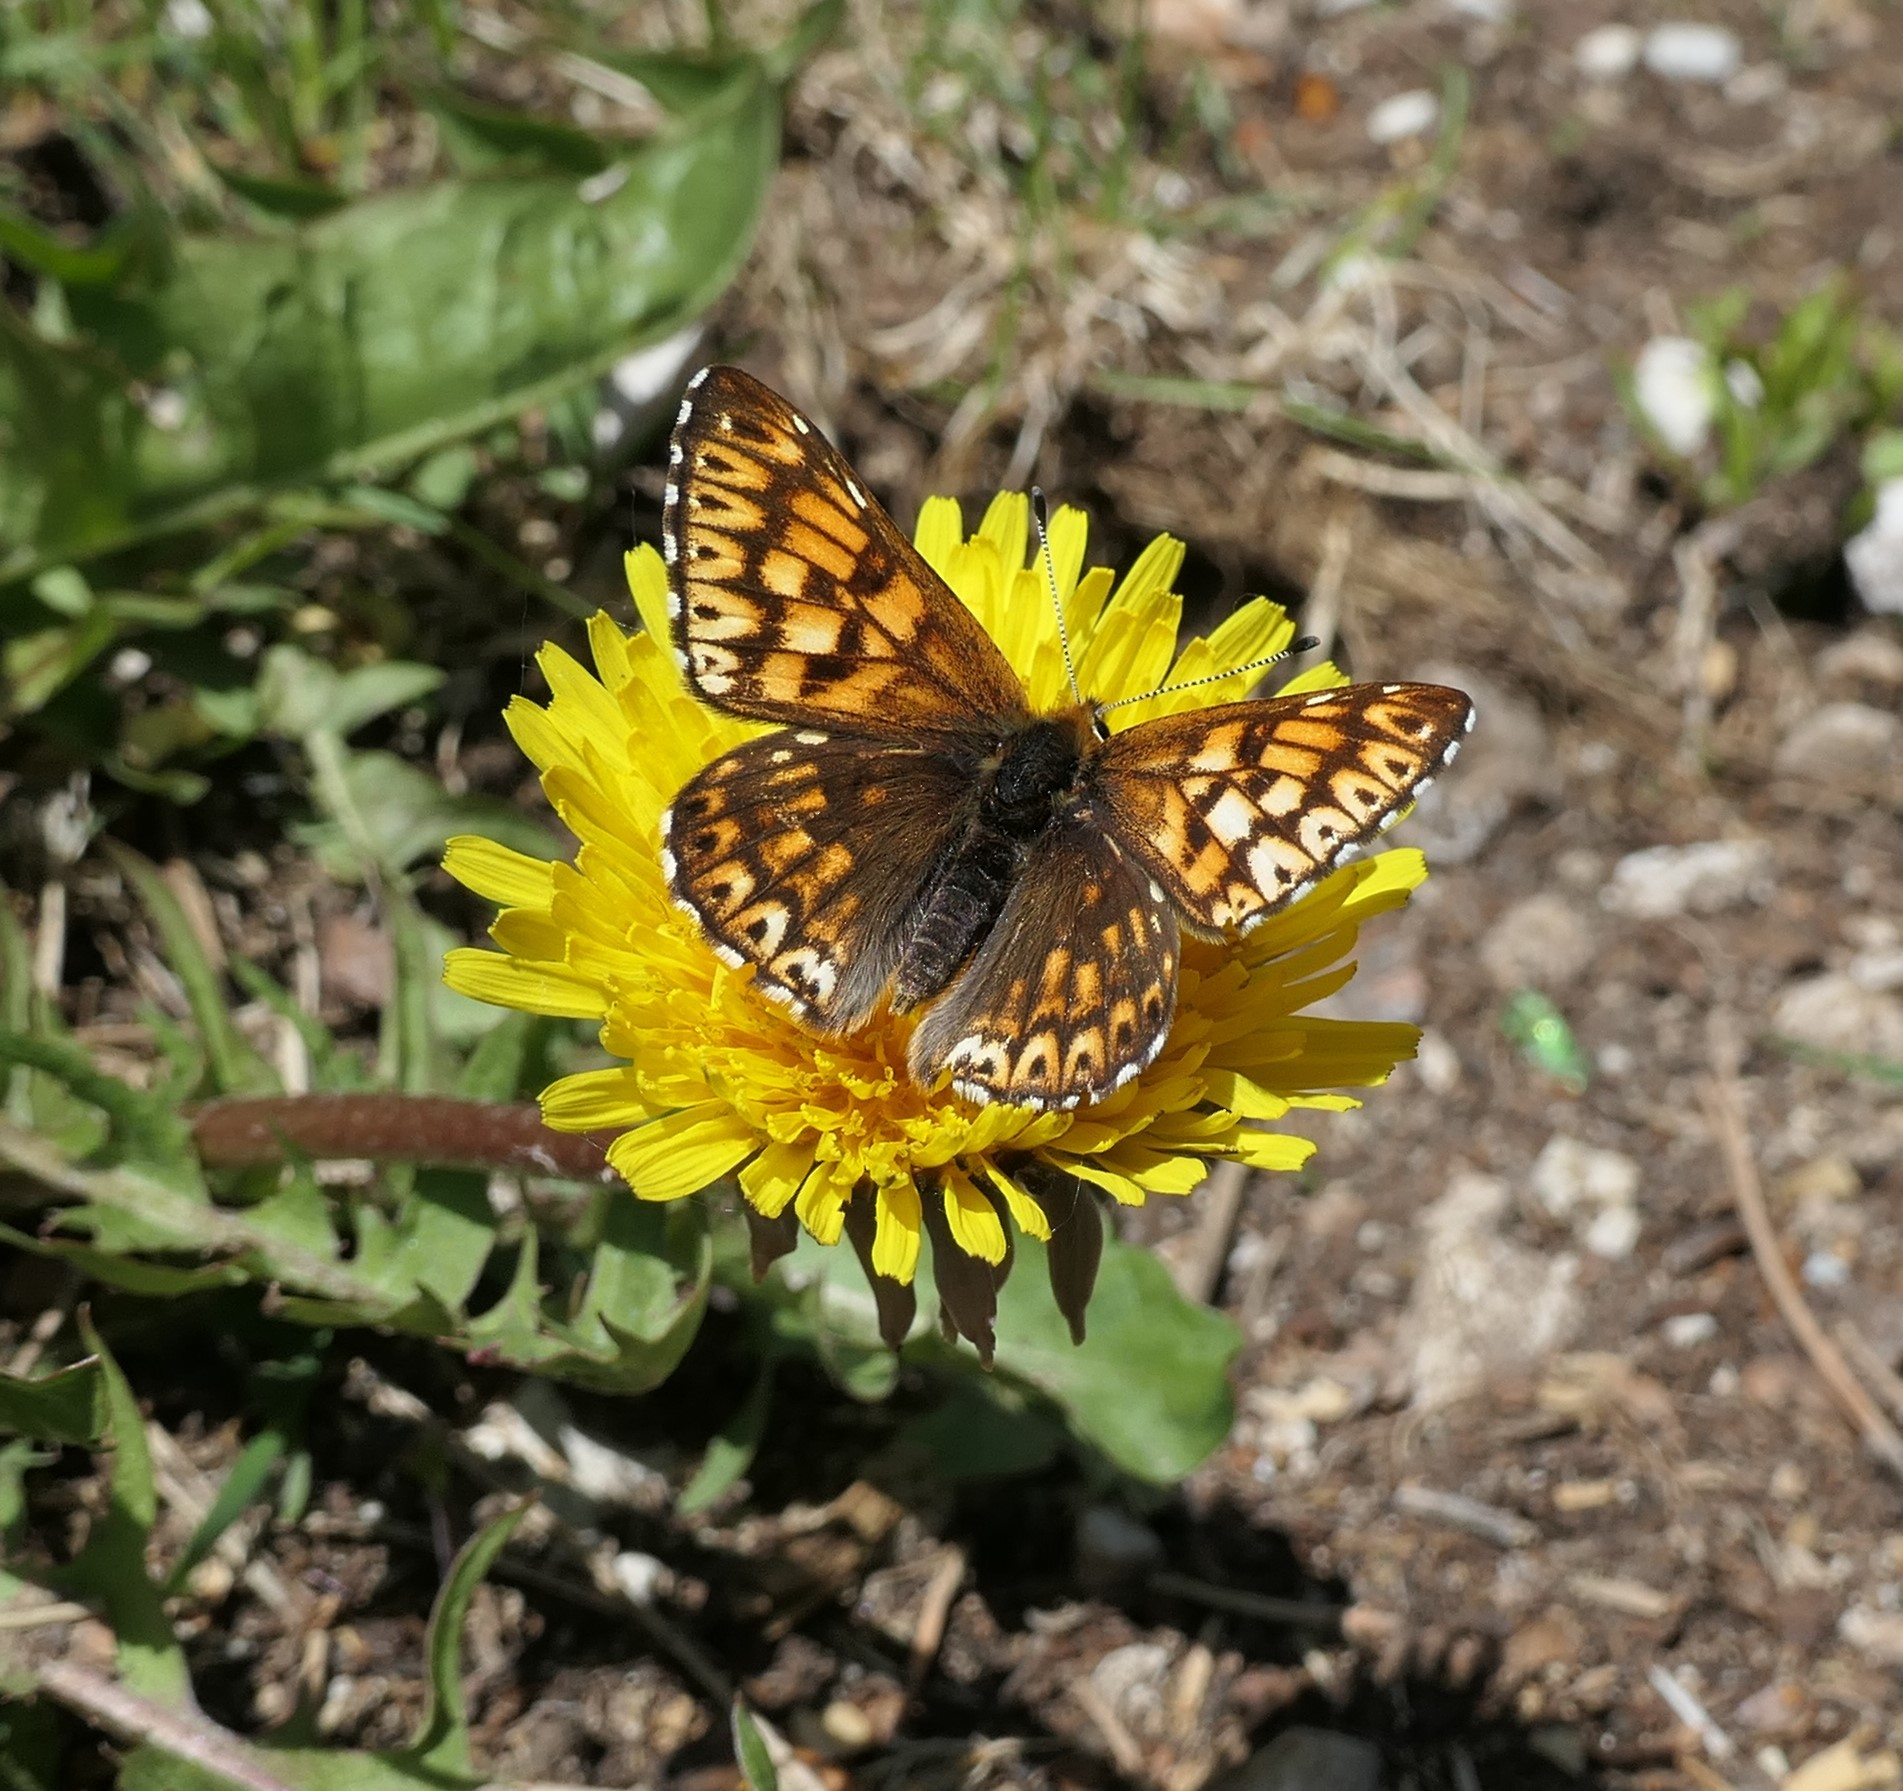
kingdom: Animalia
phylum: Arthropoda
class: Insecta
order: Lepidoptera
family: Riodinidae
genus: Hamearis
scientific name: Hamearis lucina
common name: Duke of burgundy fritillary
